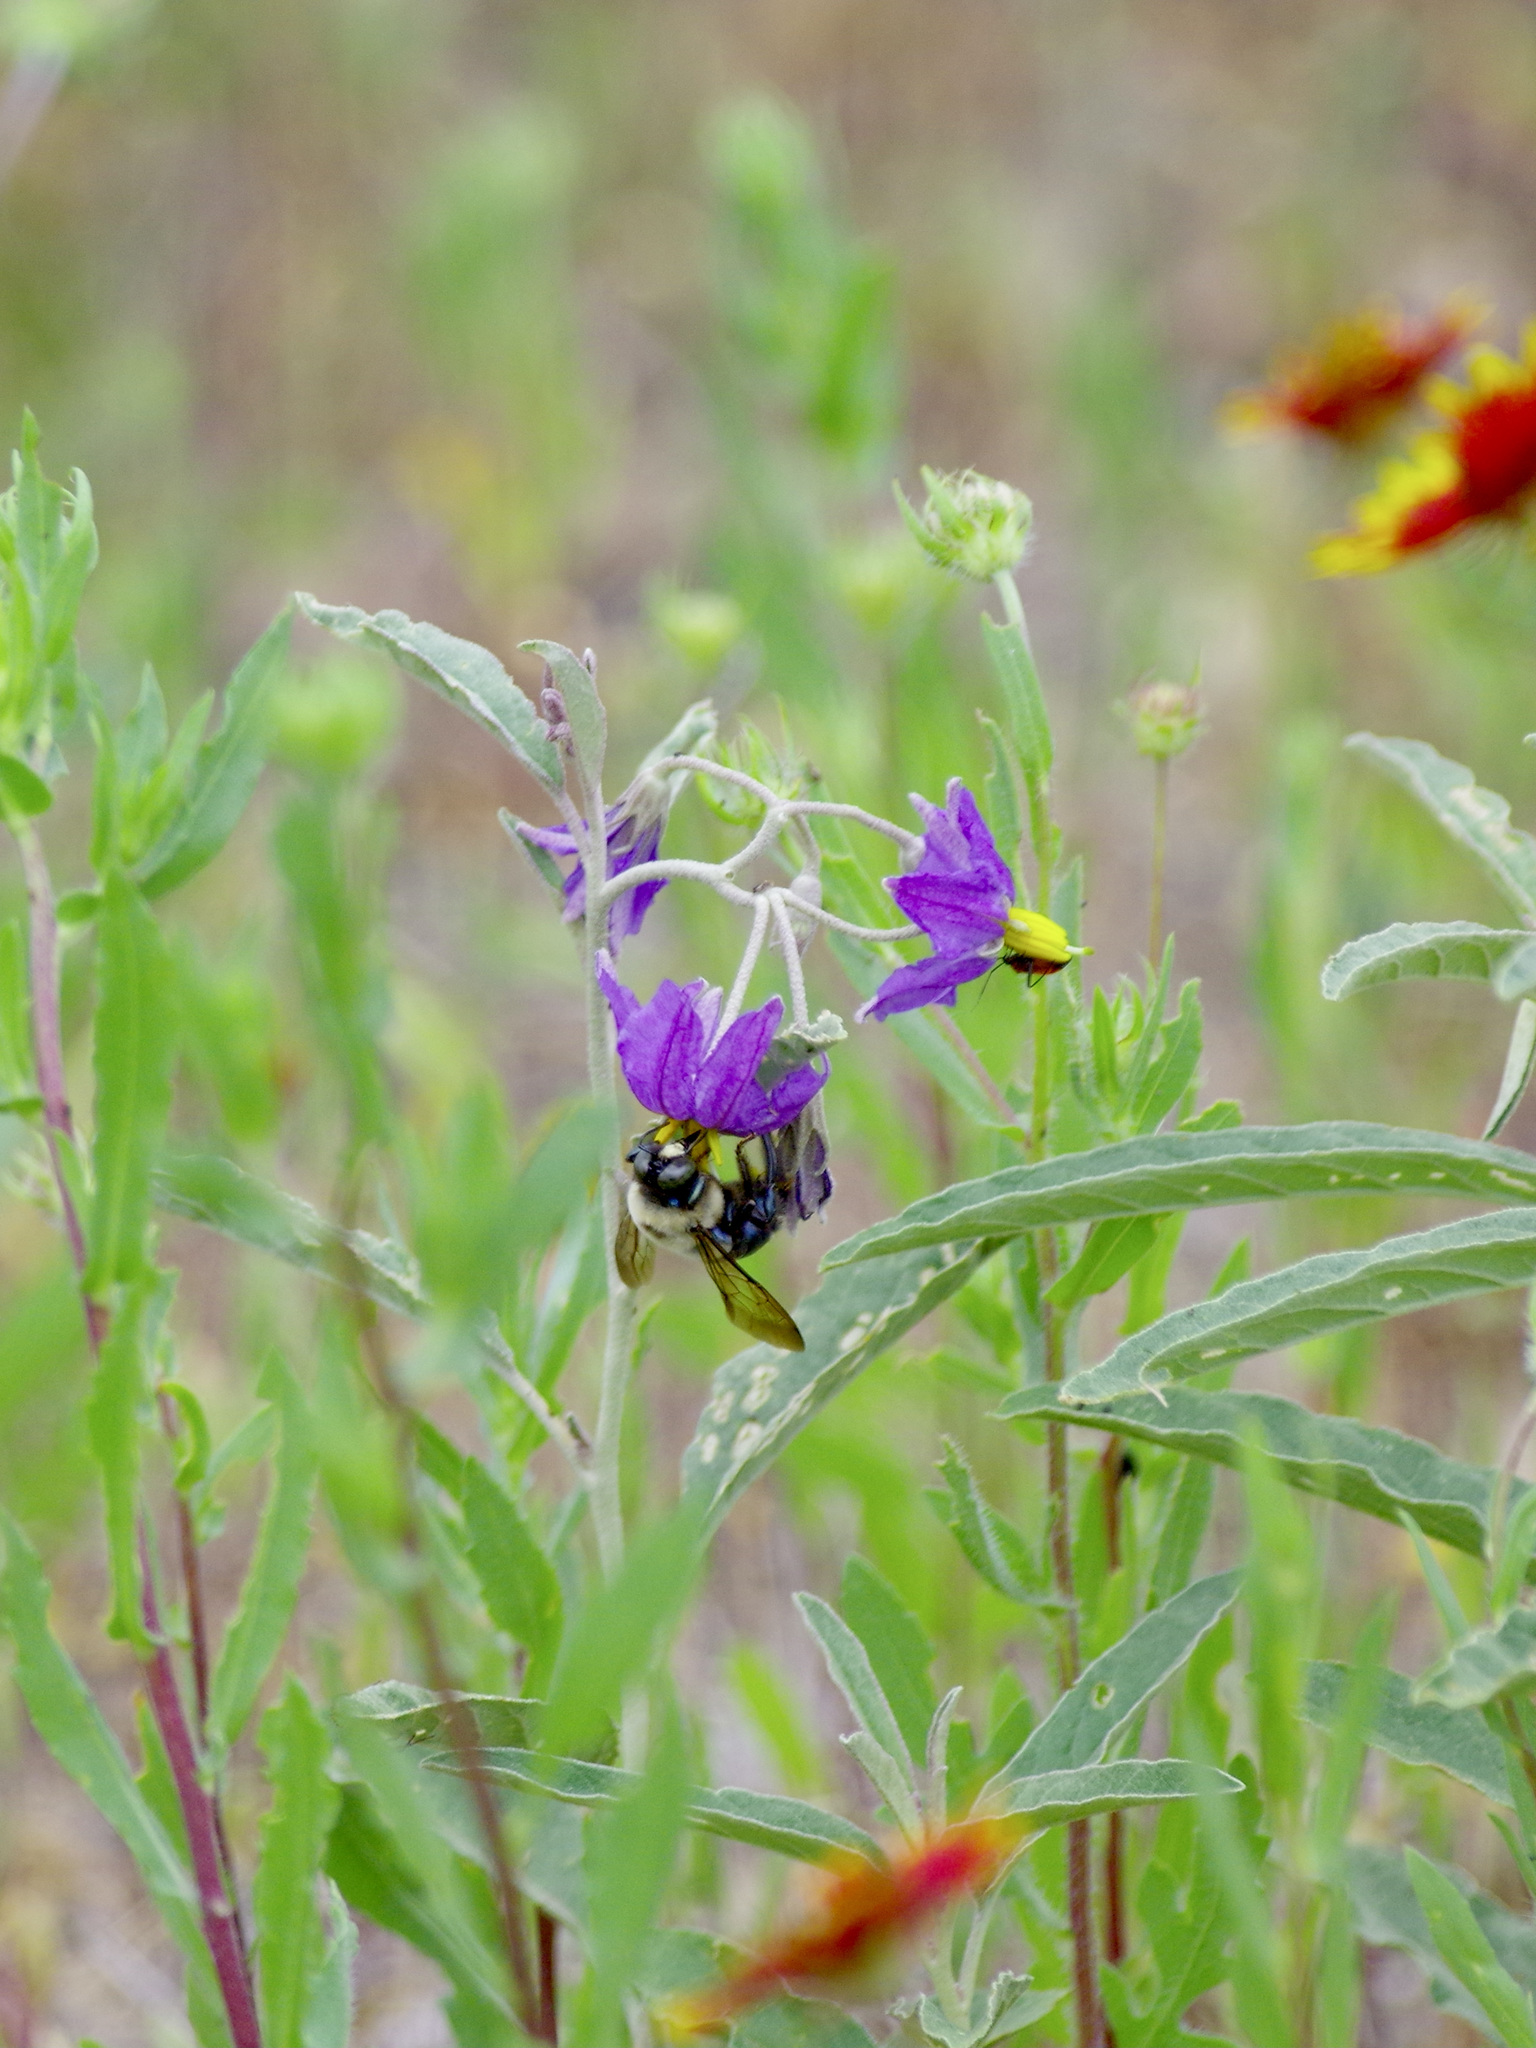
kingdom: Animalia
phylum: Arthropoda
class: Insecta
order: Hymenoptera
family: Apidae
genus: Xylocopa
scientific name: Xylocopa virginica
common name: Carpenter bee
